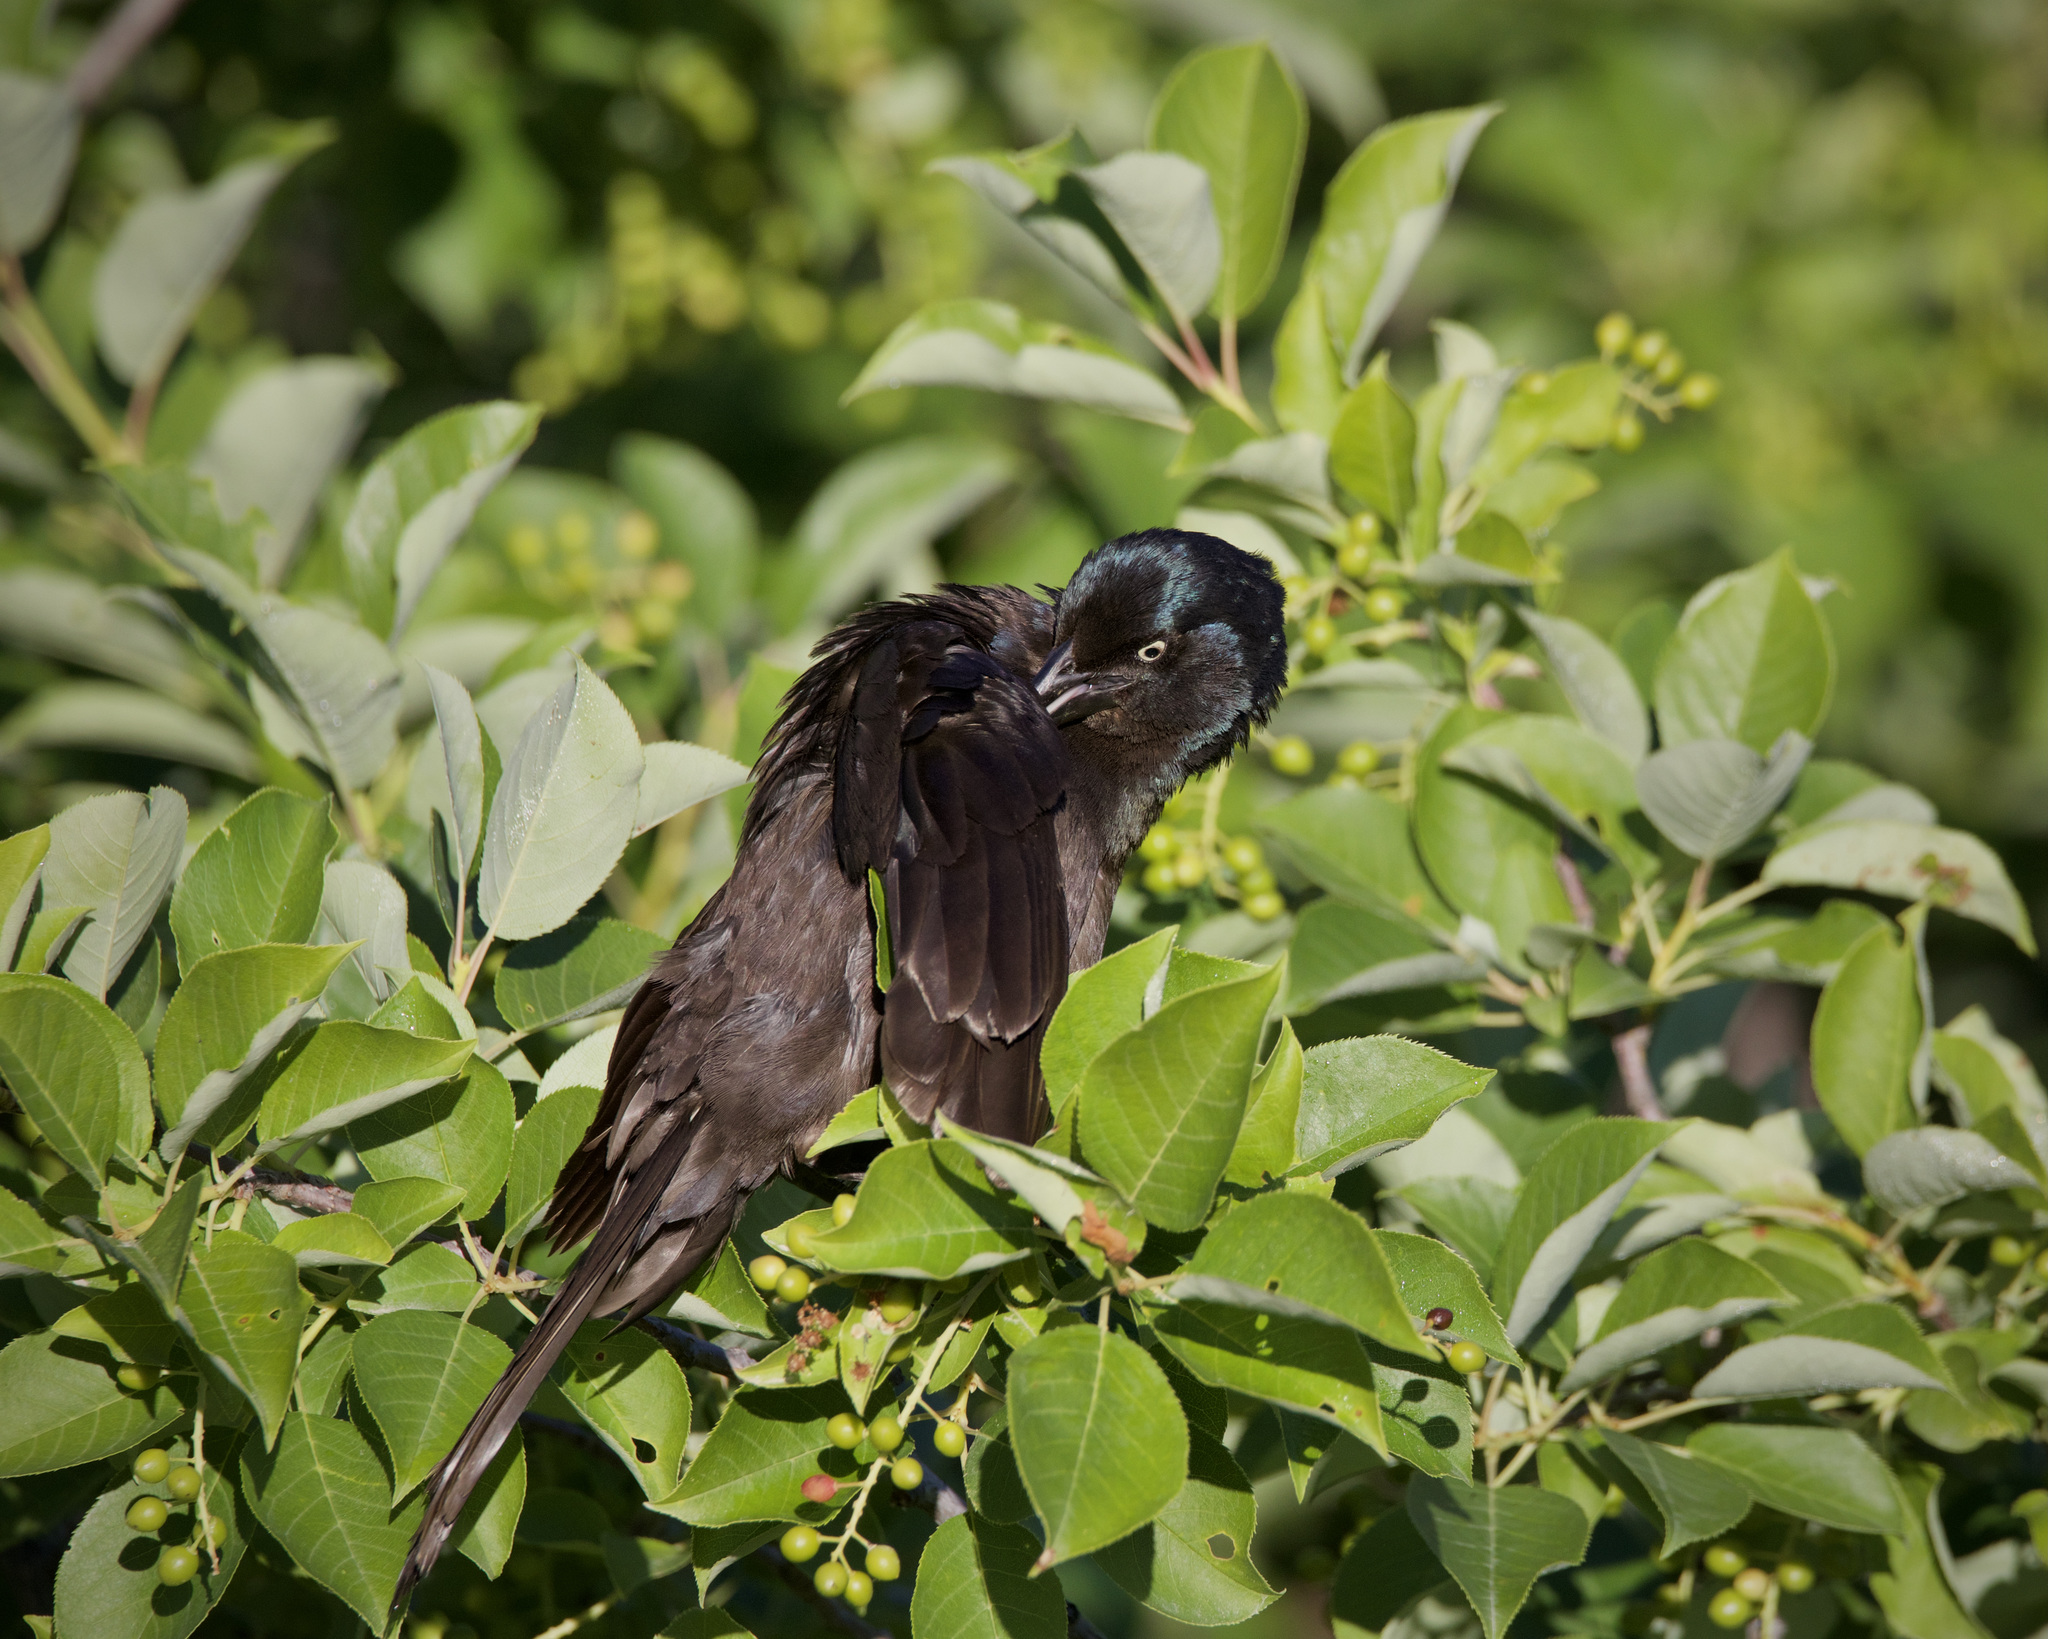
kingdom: Animalia
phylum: Chordata
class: Aves
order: Passeriformes
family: Icteridae
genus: Quiscalus
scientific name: Quiscalus quiscula
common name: Common grackle
